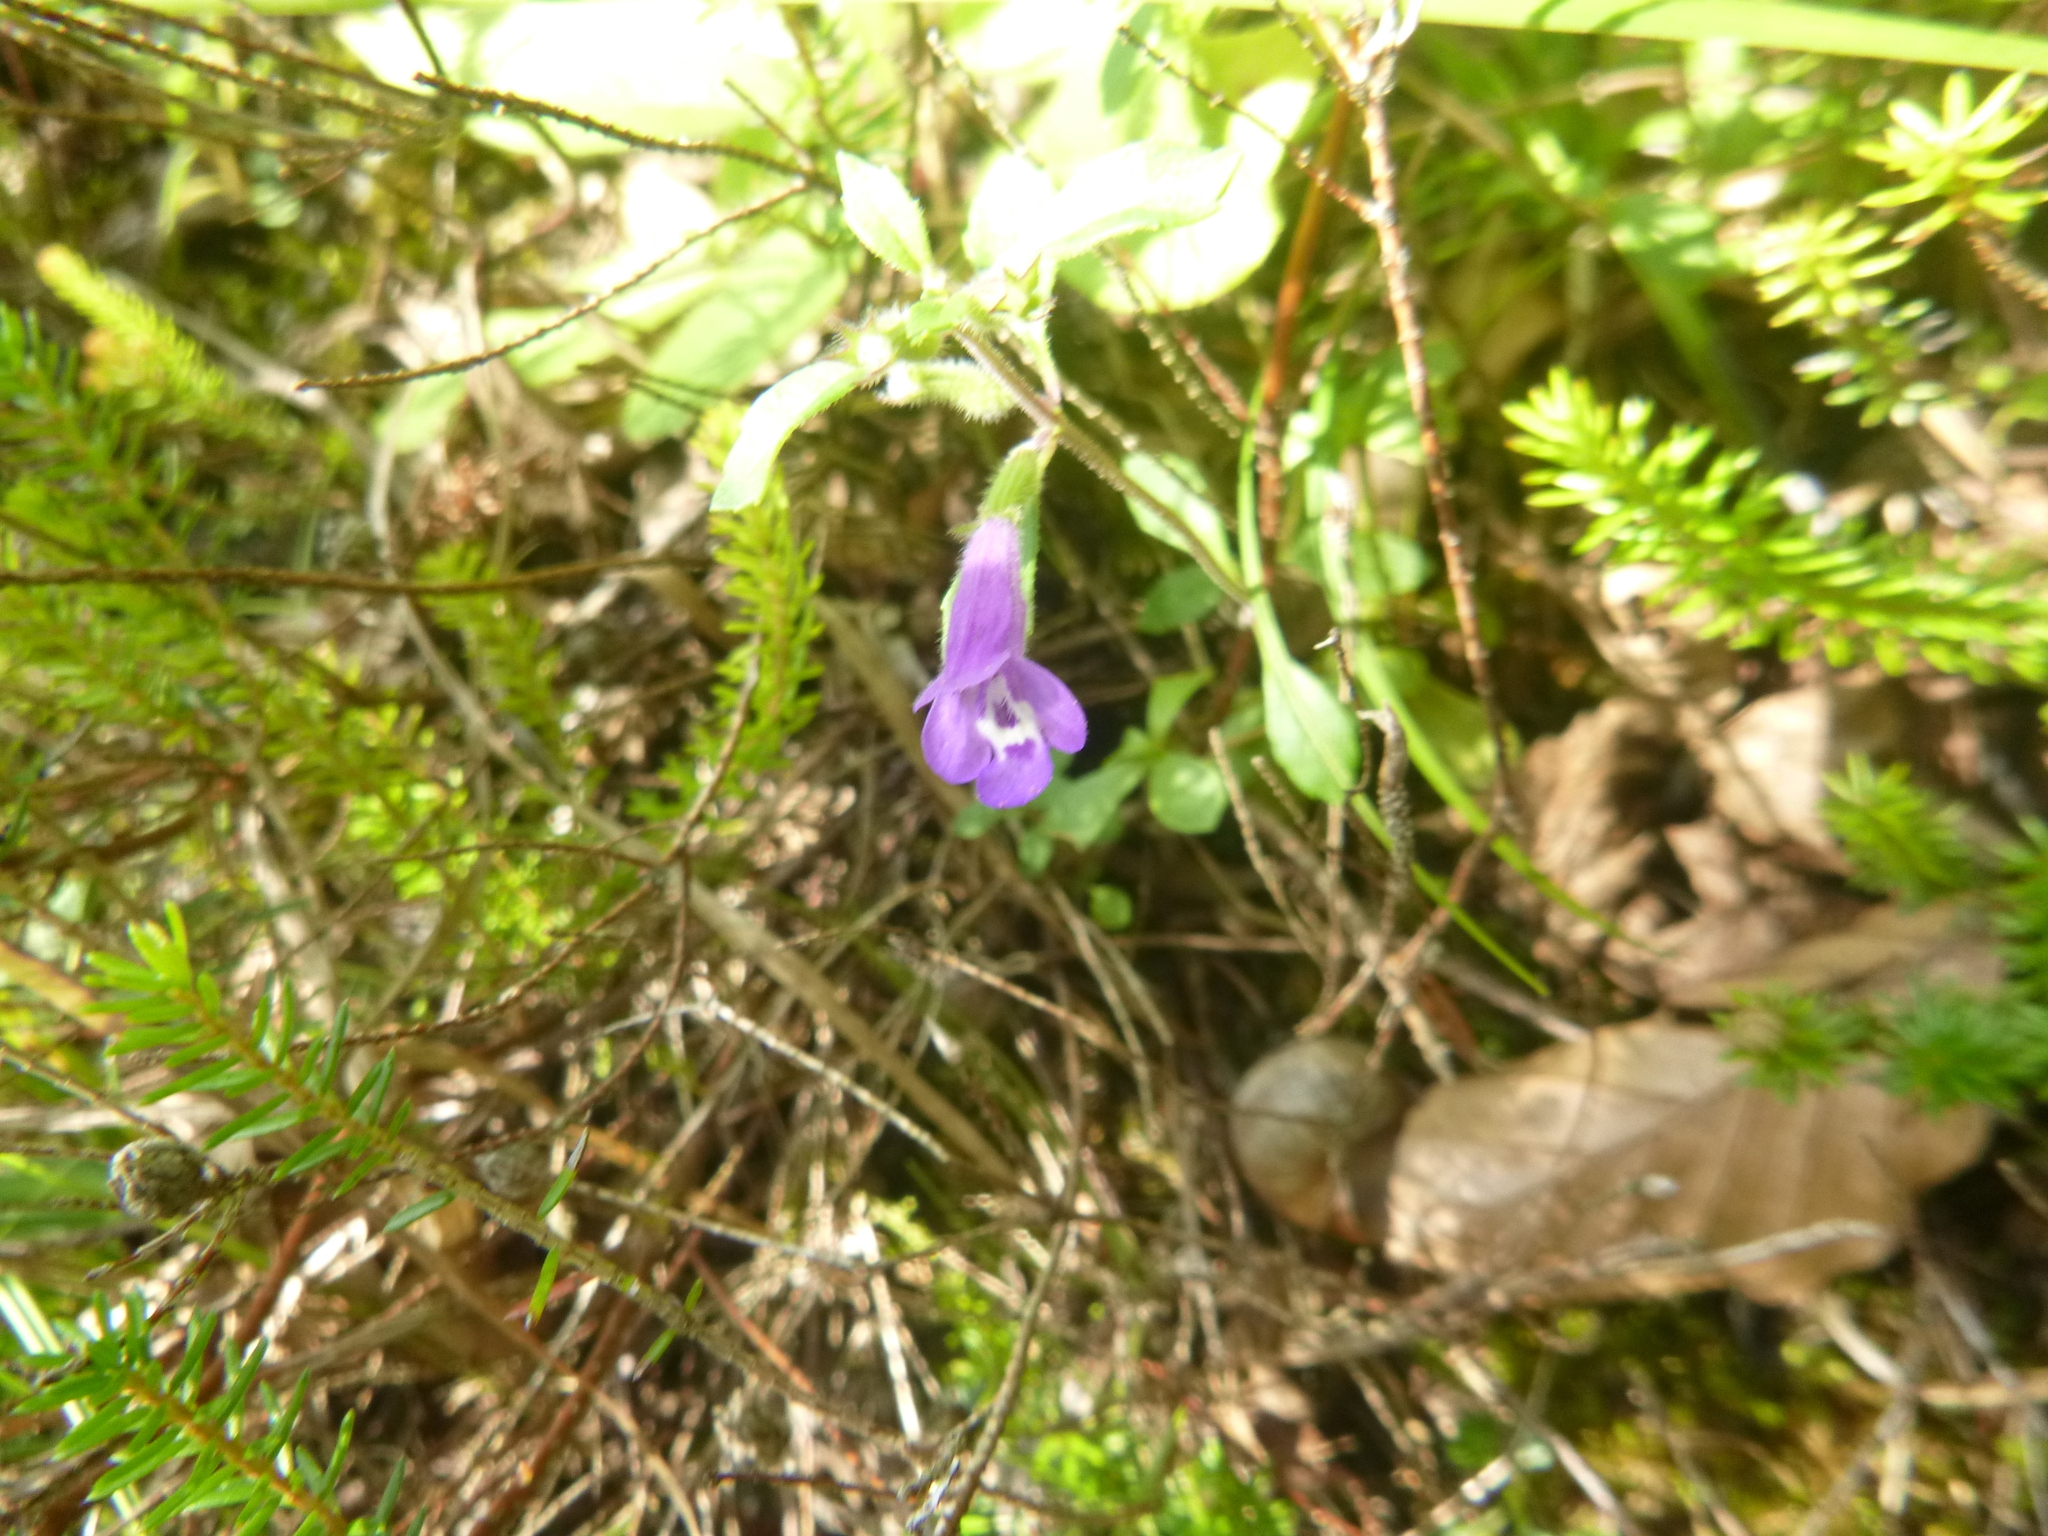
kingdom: Plantae
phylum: Tracheophyta
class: Magnoliopsida
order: Lamiales
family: Lamiaceae
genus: Clinopodium
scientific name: Clinopodium alpinum
